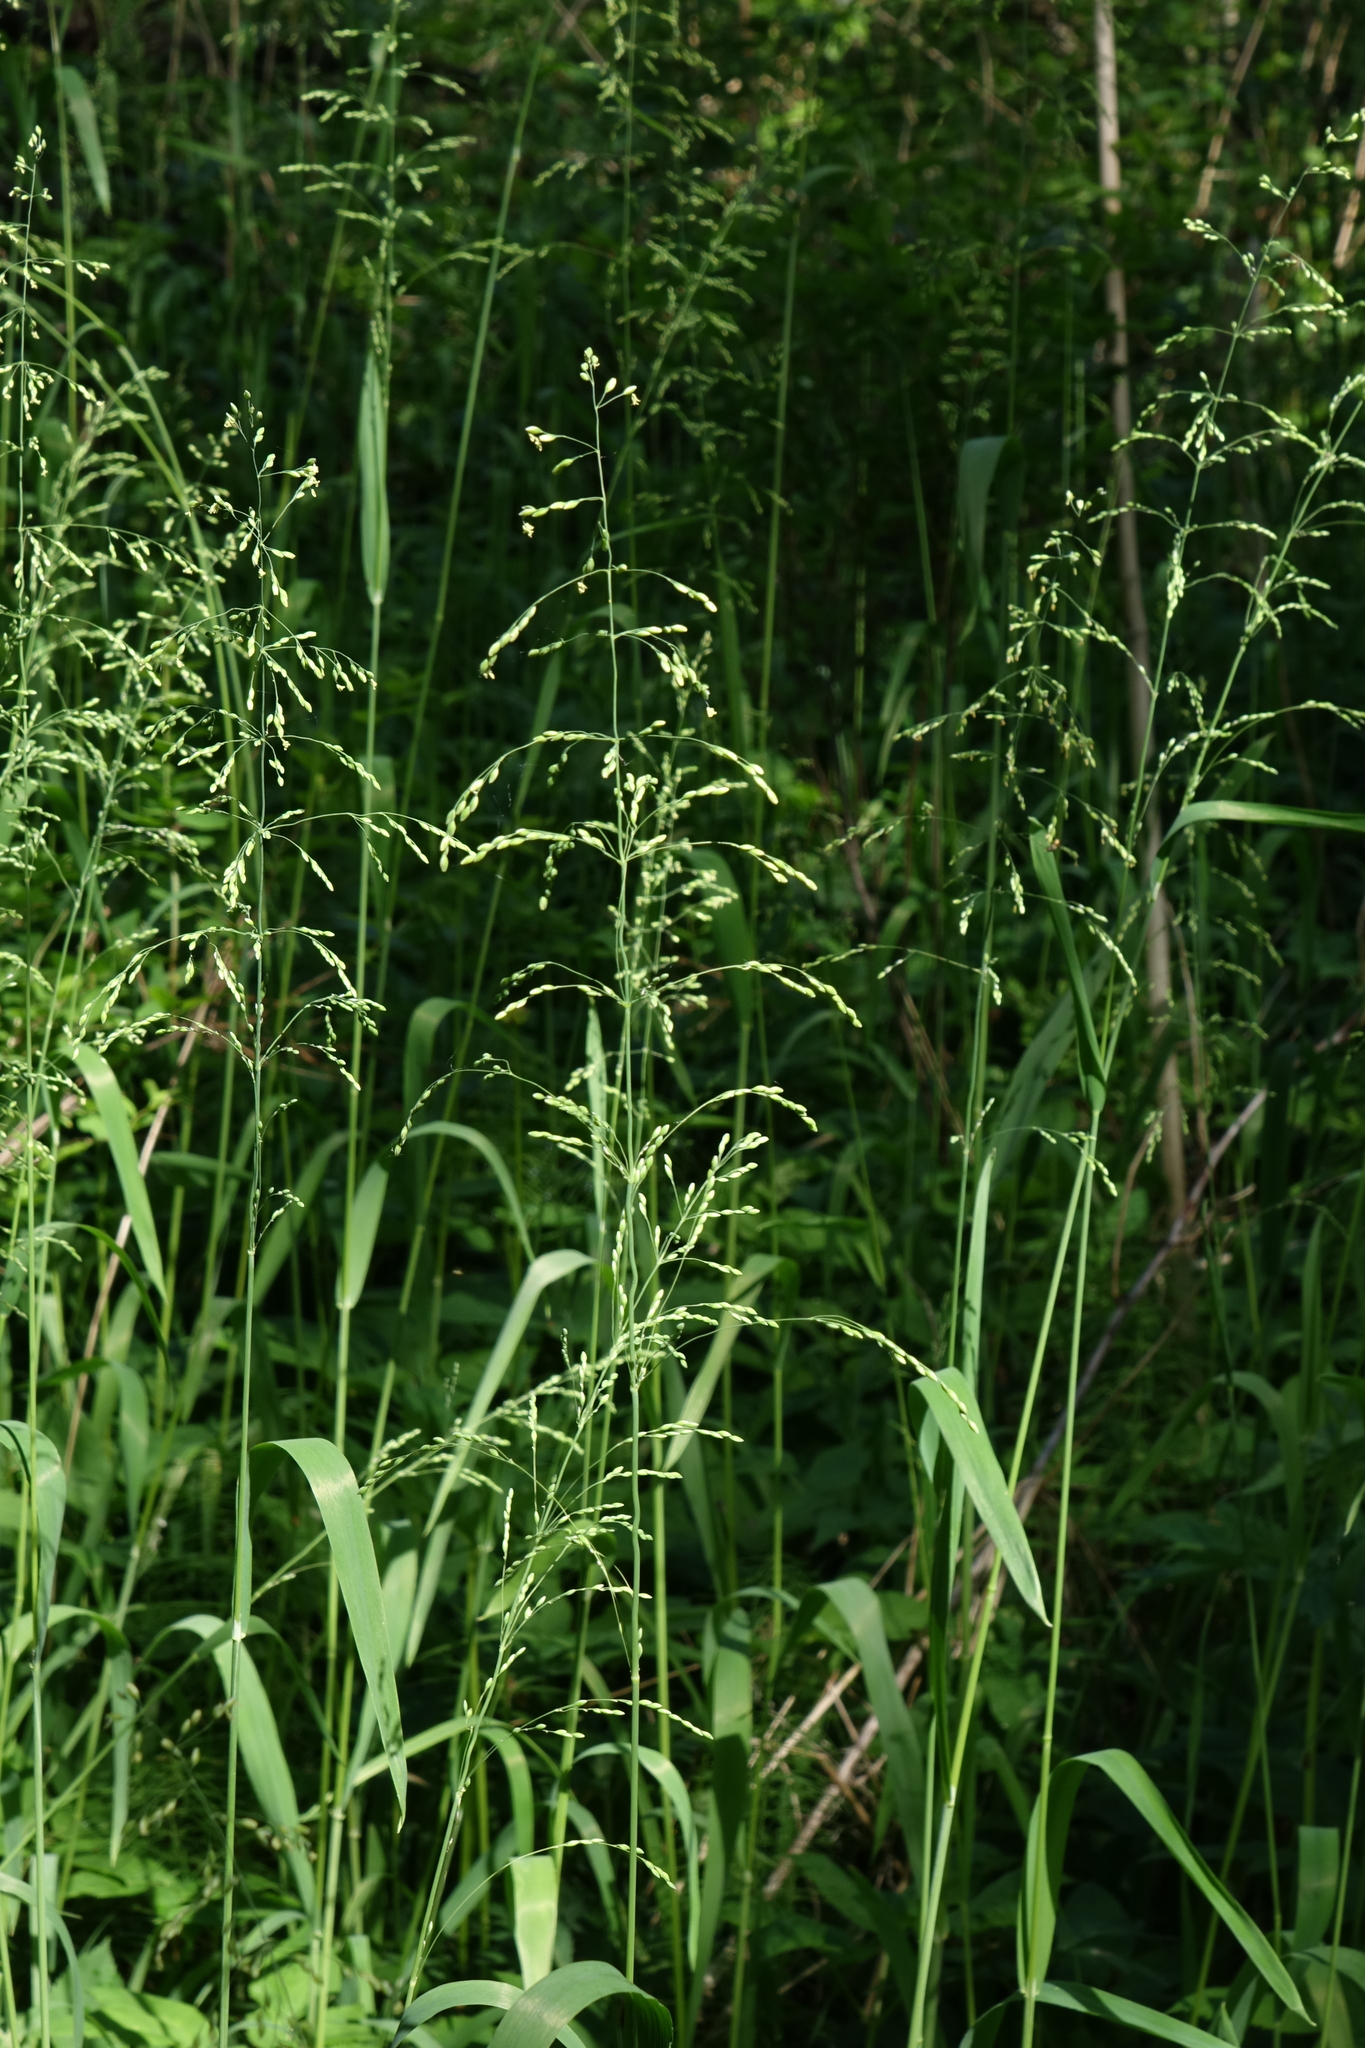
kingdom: Plantae
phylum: Tracheophyta
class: Liliopsida
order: Poales
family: Poaceae
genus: Milium
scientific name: Milium effusum
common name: Wood millet
